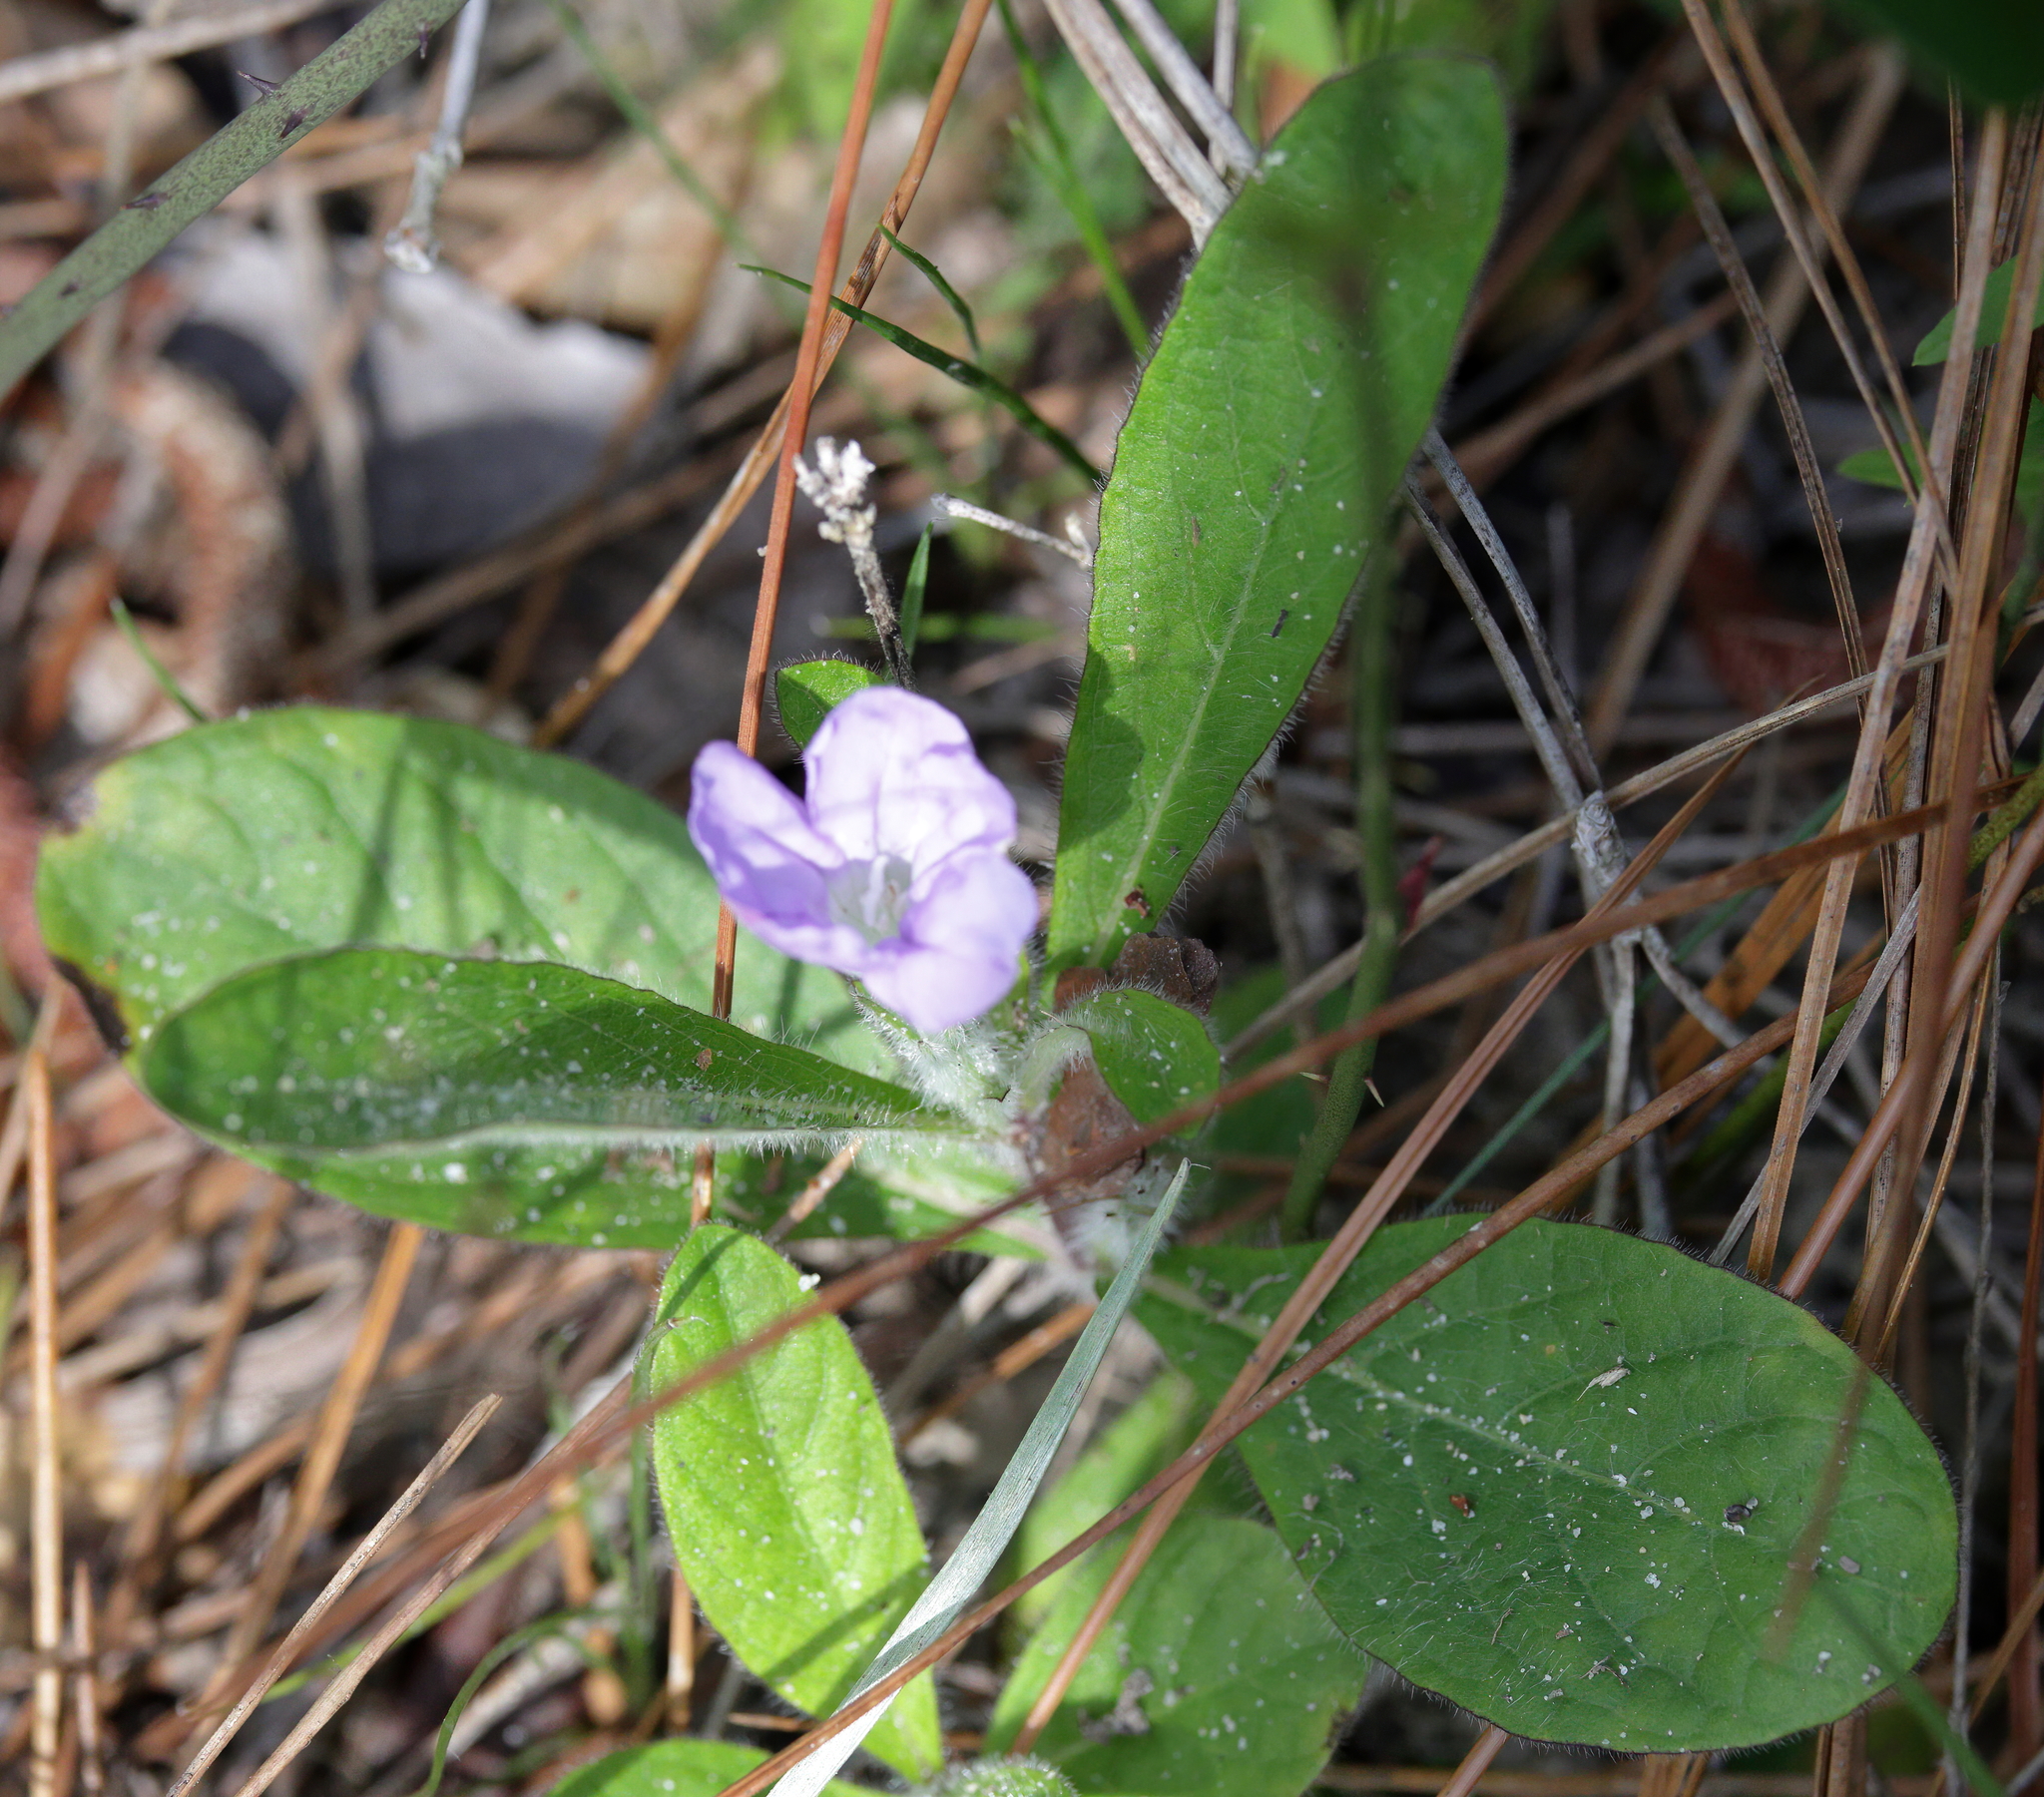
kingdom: Plantae
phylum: Tracheophyta
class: Magnoliopsida
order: Lamiales
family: Acanthaceae
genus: Ruellia
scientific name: Ruellia caroliniensis
